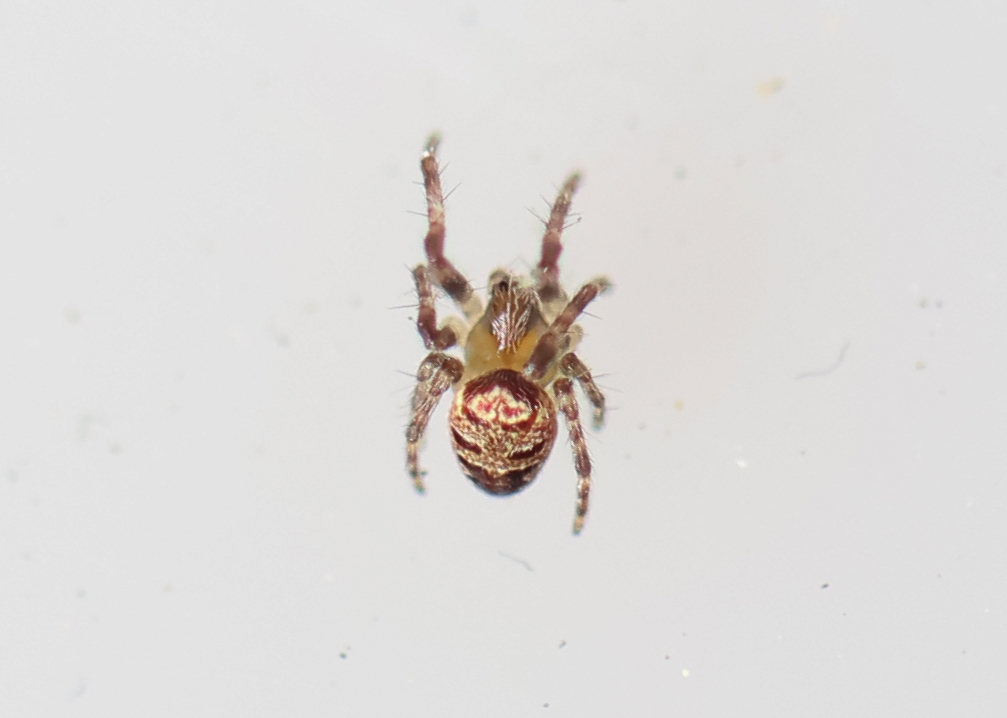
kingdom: Animalia
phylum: Arthropoda
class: Arachnida
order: Araneae
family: Araneidae
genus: Zilla
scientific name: Zilla diodia
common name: Zilla diodia
